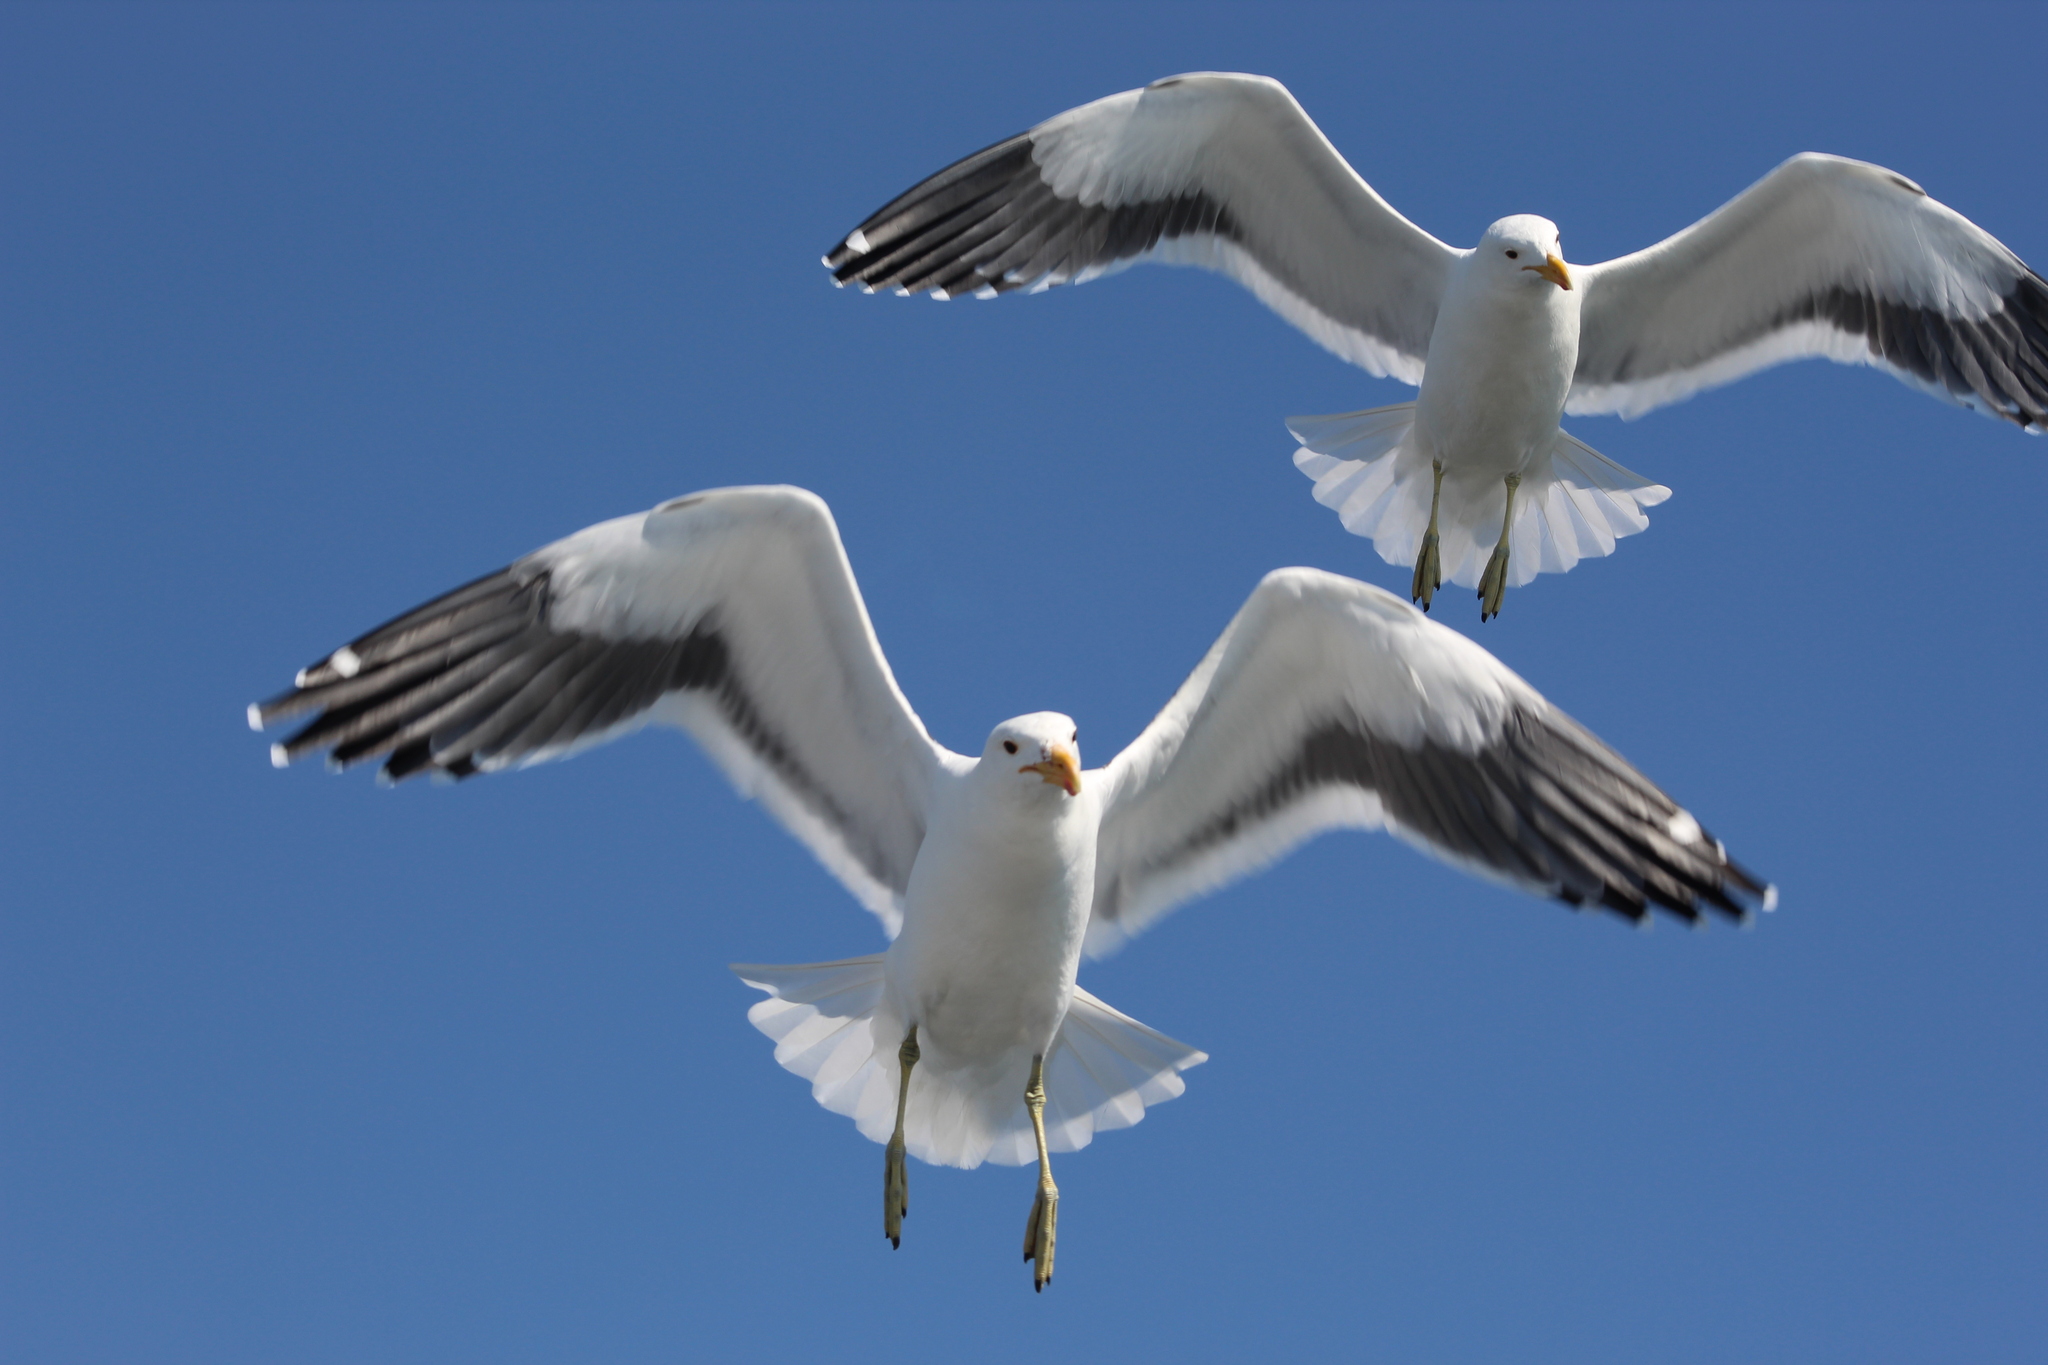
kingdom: Animalia
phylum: Chordata
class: Aves
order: Charadriiformes
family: Laridae
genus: Larus
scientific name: Larus dominicanus
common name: Kelp gull
